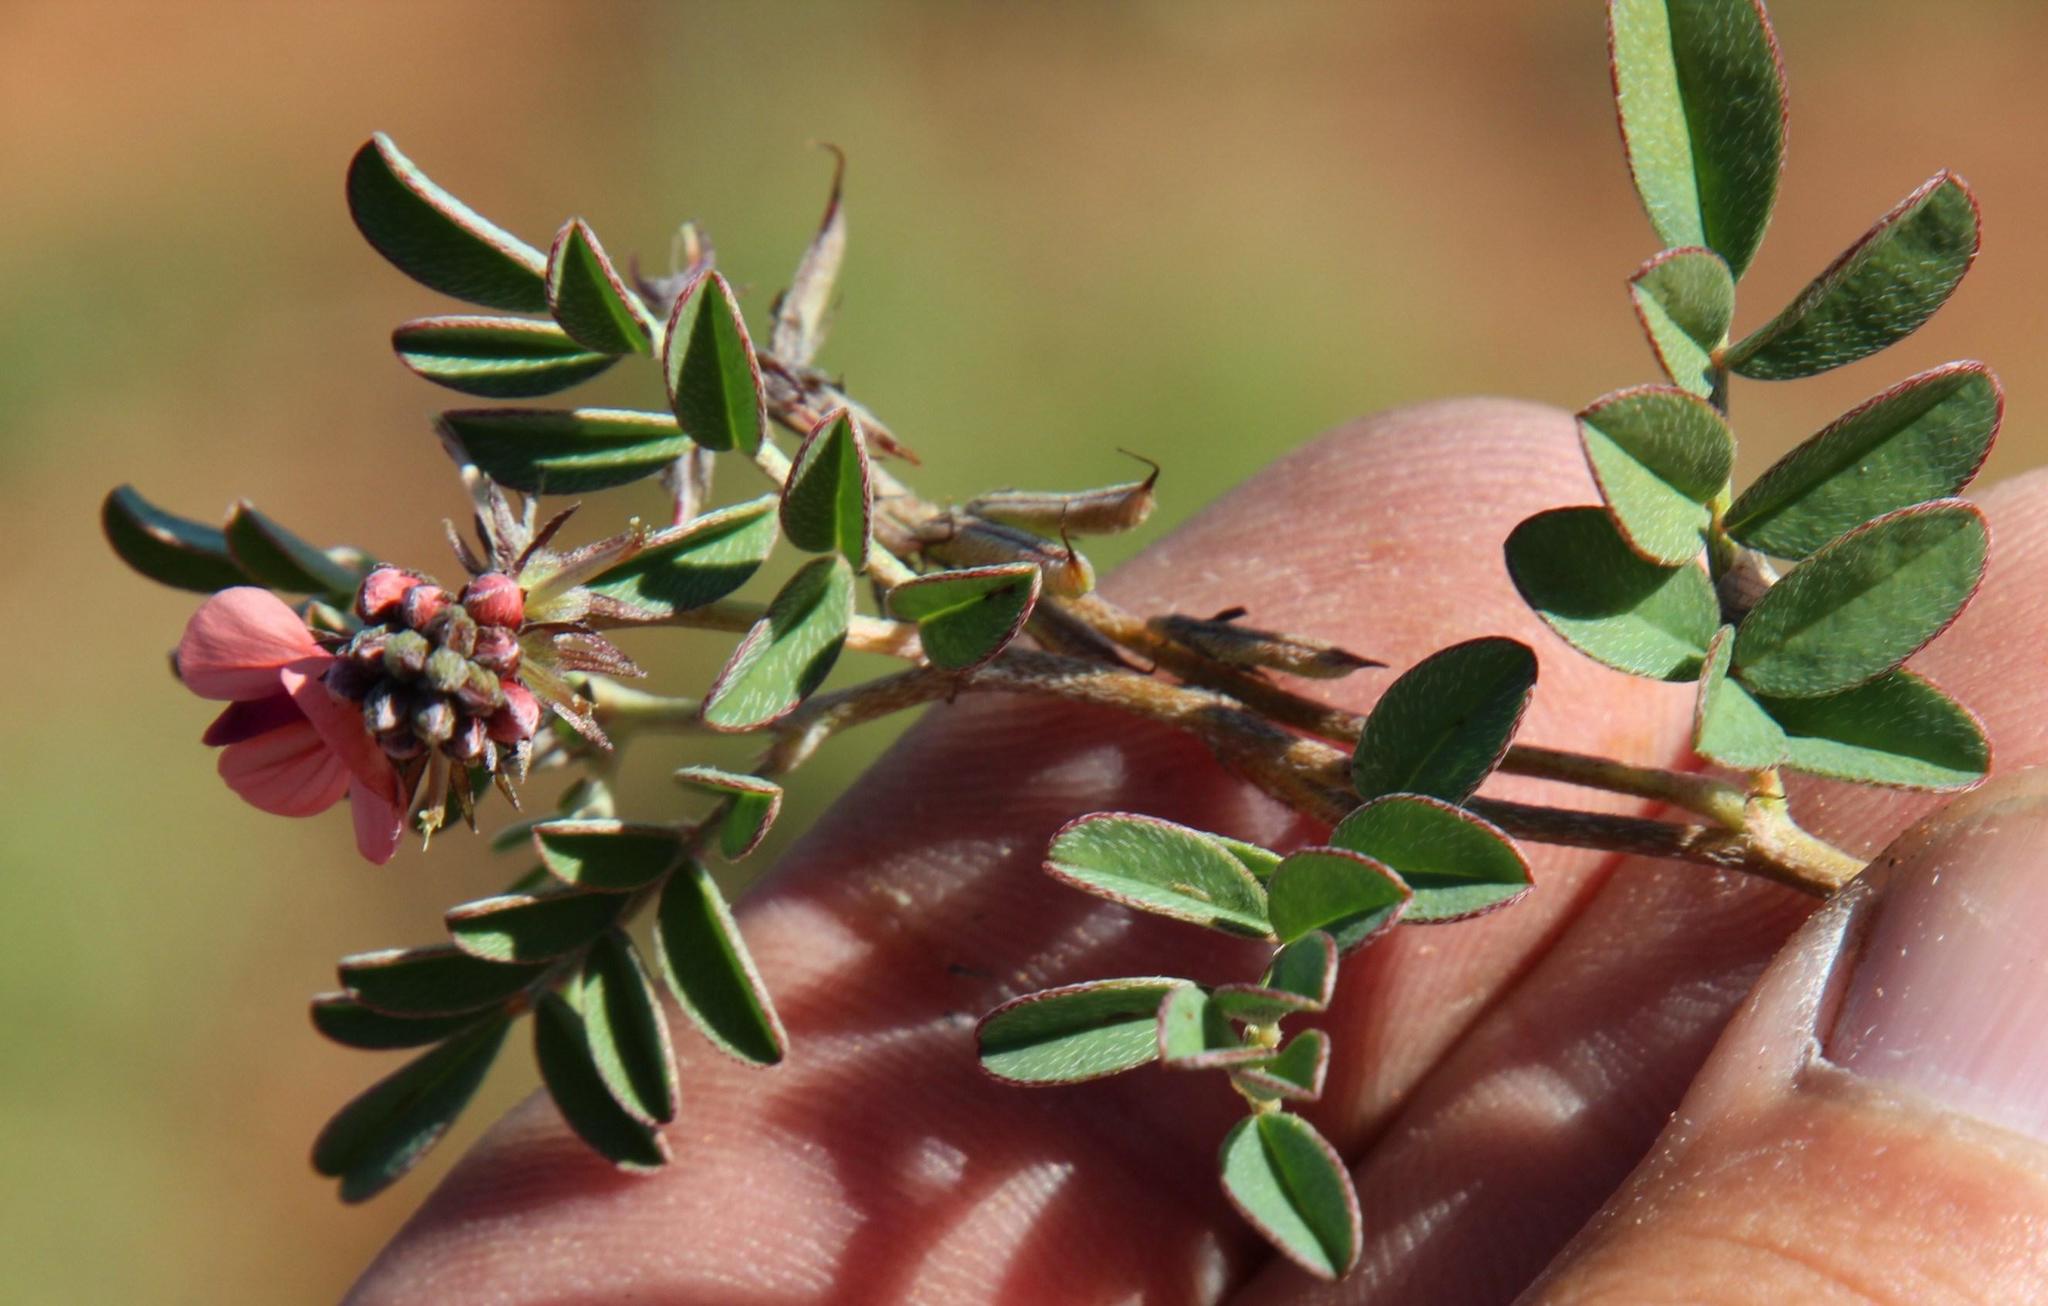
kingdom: Plantae
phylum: Tracheophyta
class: Magnoliopsida
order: Fabales
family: Fabaceae
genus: Indigofera
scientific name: Indigofera alternans
